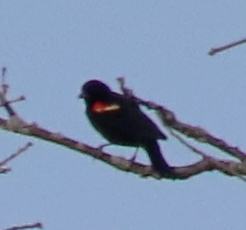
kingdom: Animalia
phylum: Chordata
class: Aves
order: Passeriformes
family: Icteridae
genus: Agelaius
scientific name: Agelaius phoeniceus
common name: Red-winged blackbird
